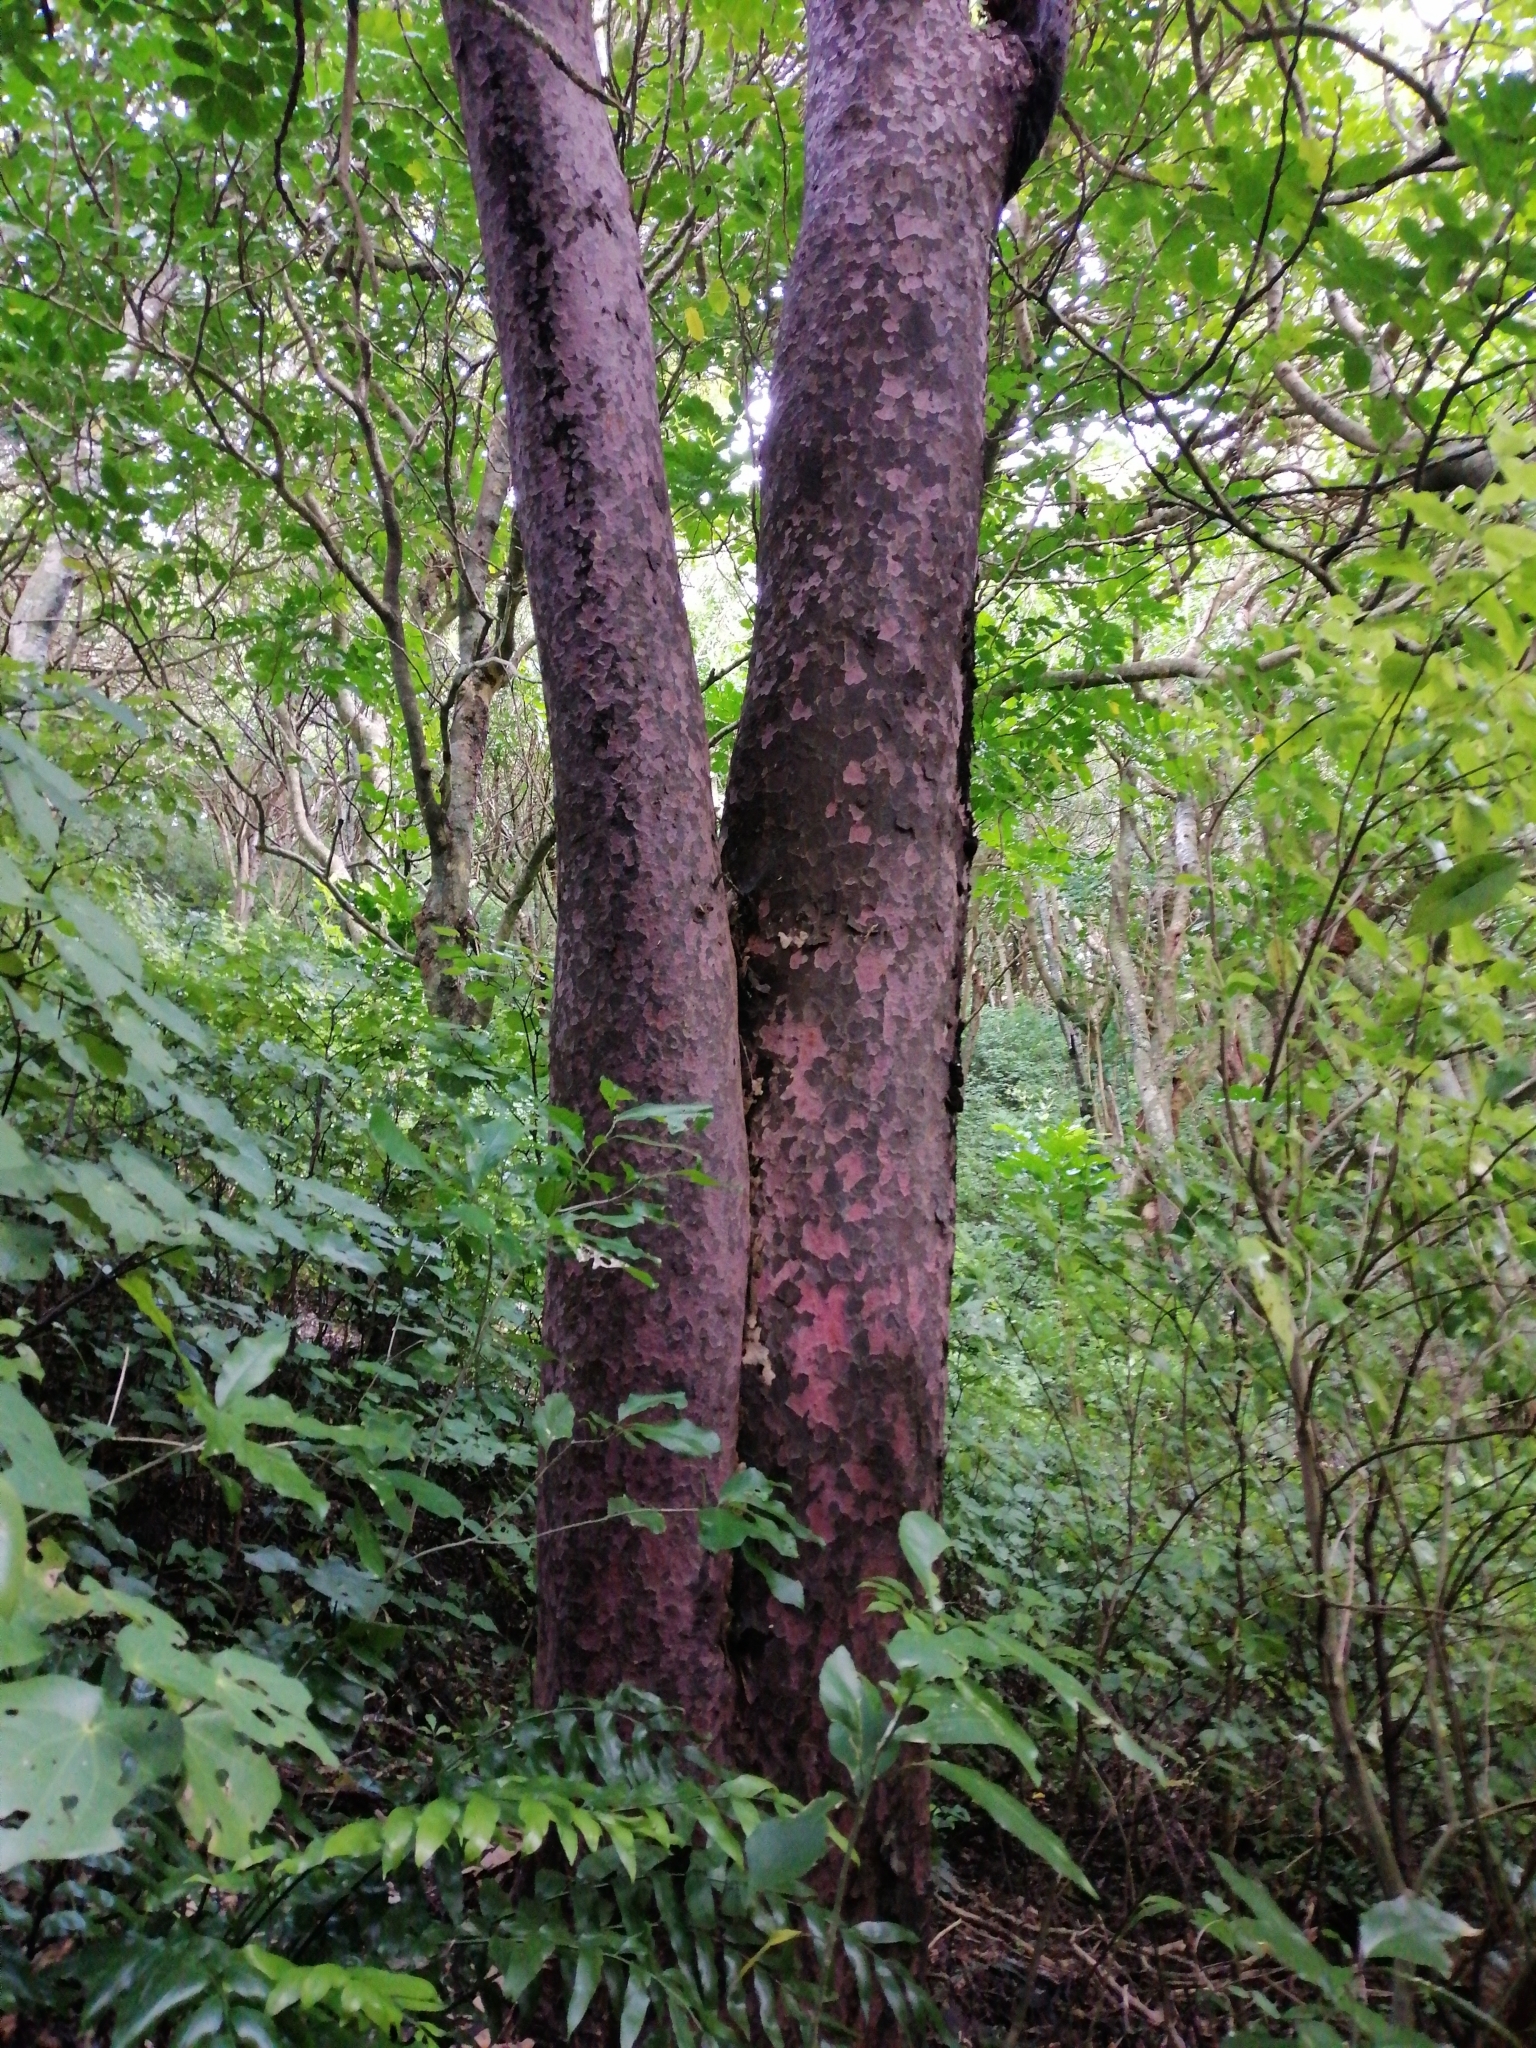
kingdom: Plantae
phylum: Tracheophyta
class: Pinopsida
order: Pinales
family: Podocarpaceae
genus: Prumnopitys
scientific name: Prumnopitys taxifolia
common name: Matai
